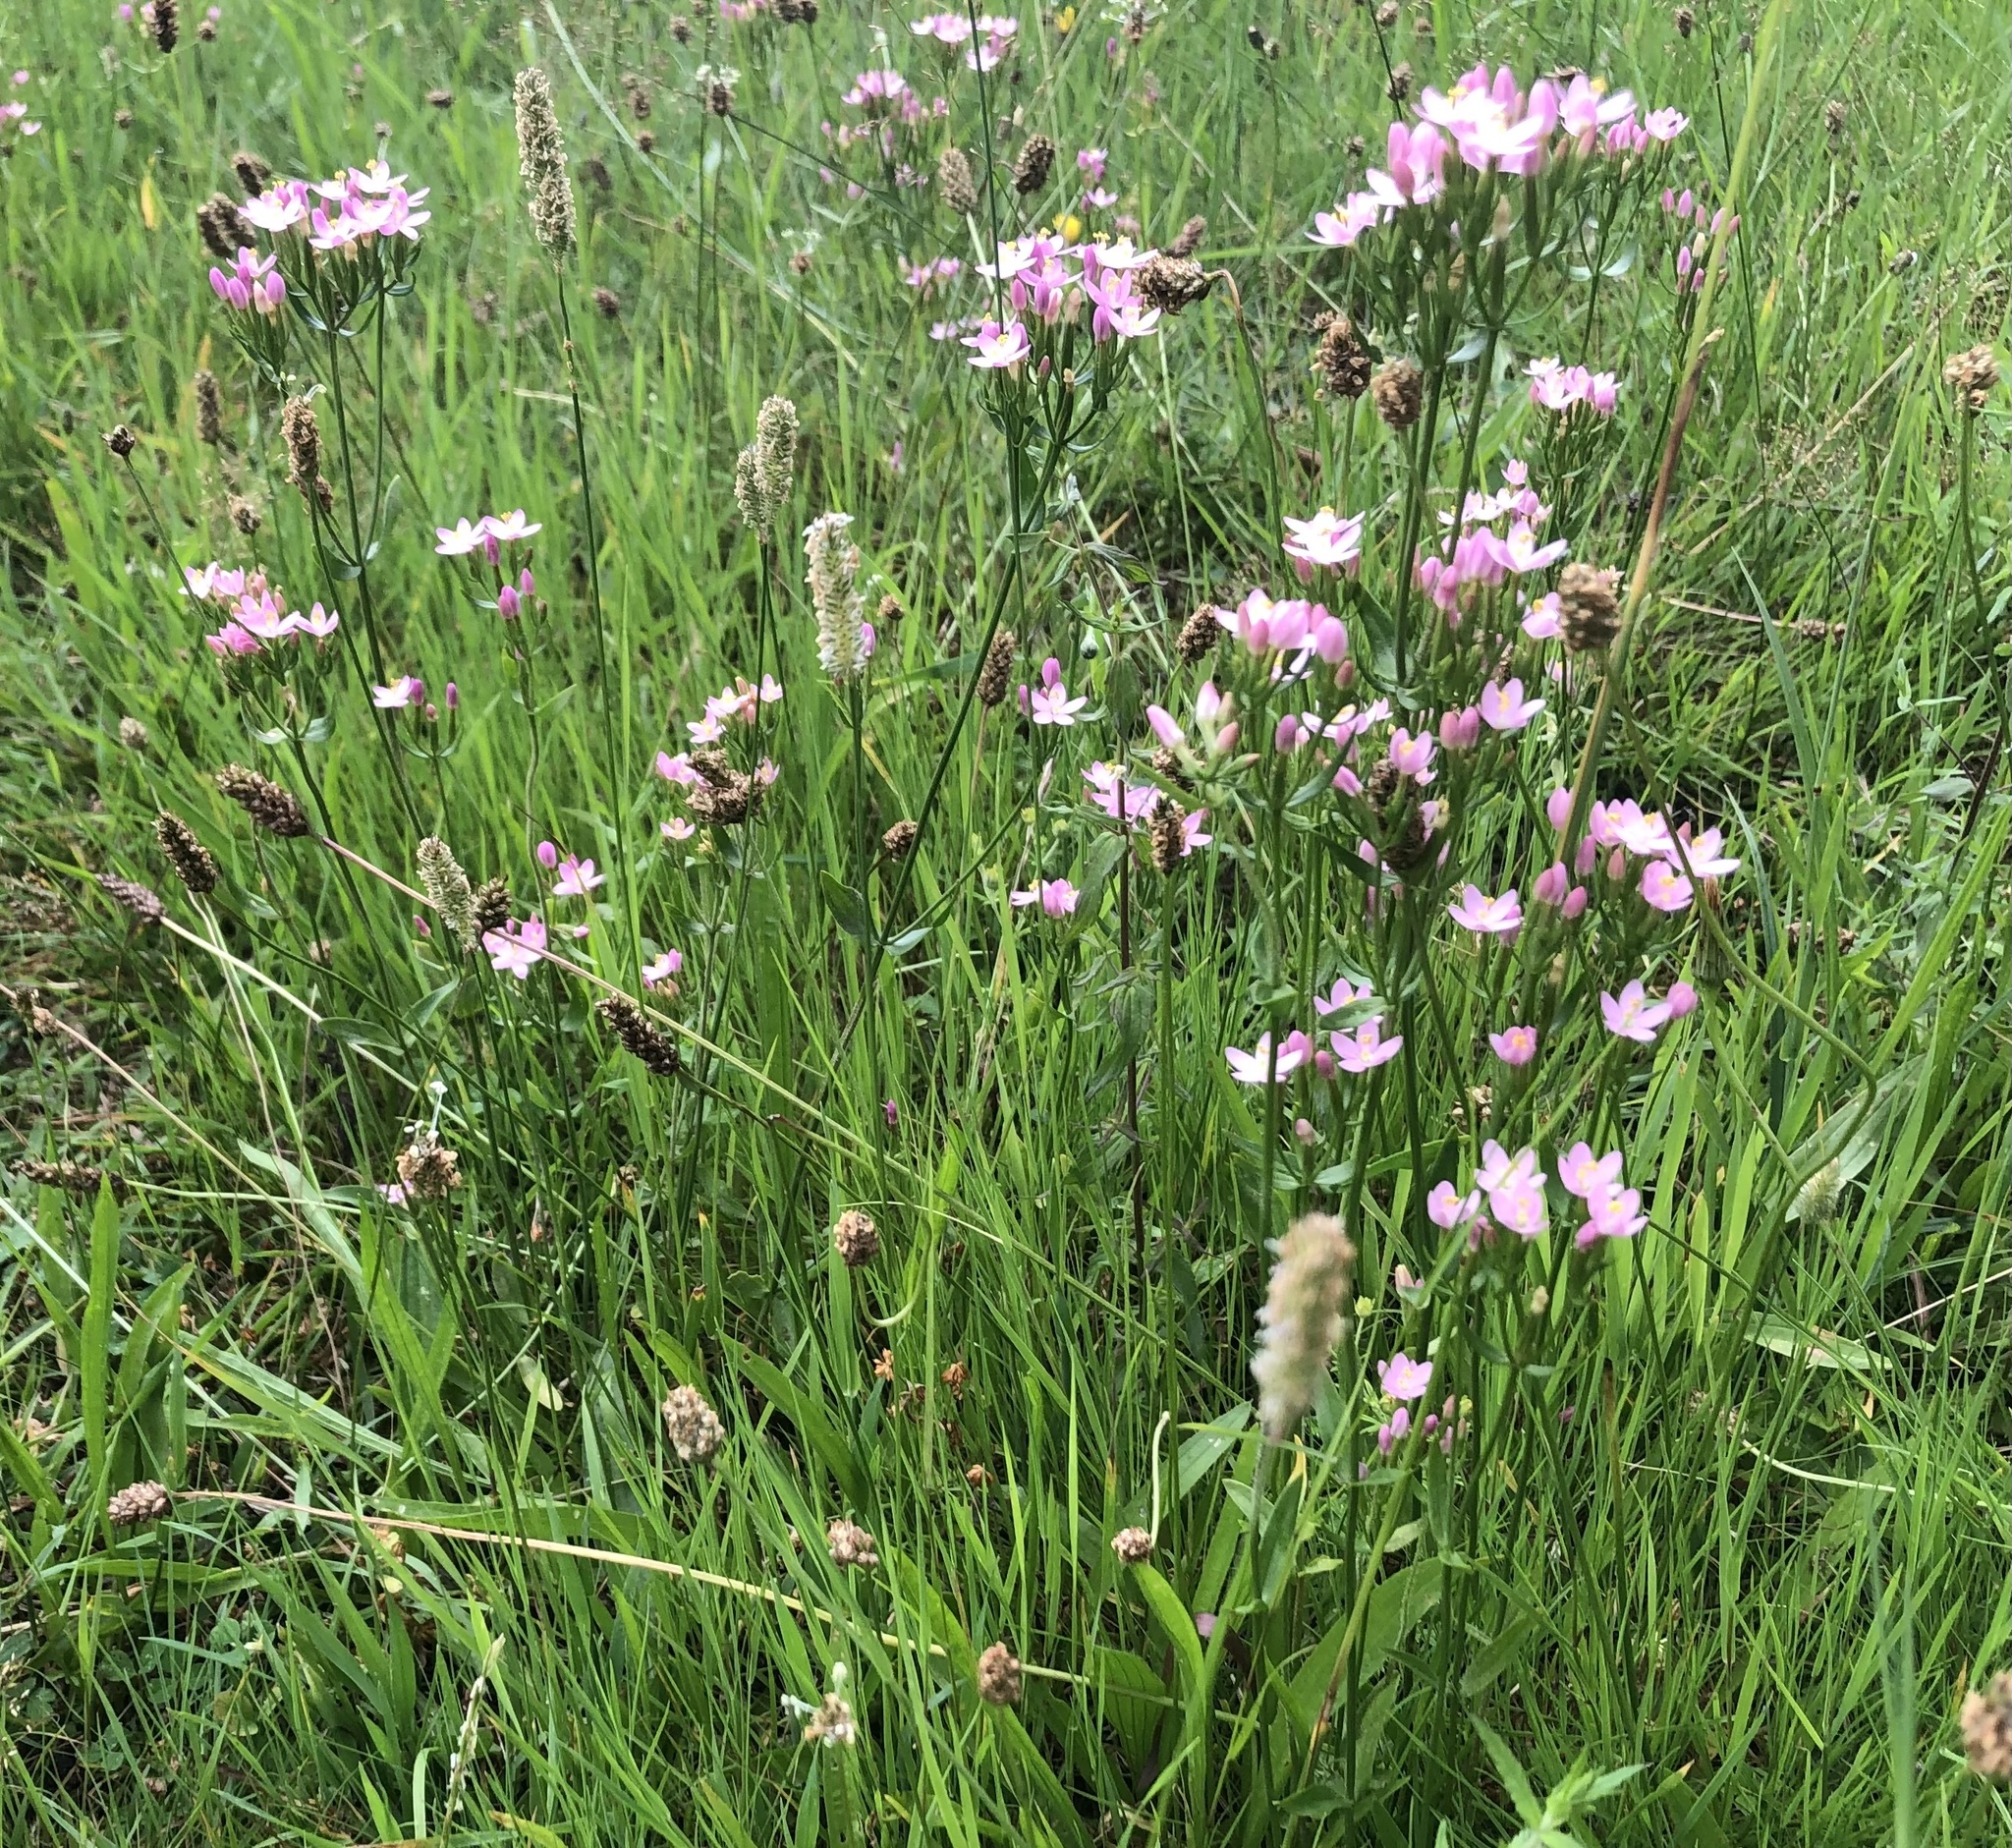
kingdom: Plantae
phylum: Tracheophyta
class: Magnoliopsida
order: Gentianales
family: Gentianaceae
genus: Centaurium
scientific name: Centaurium erythraea
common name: Common centaury
